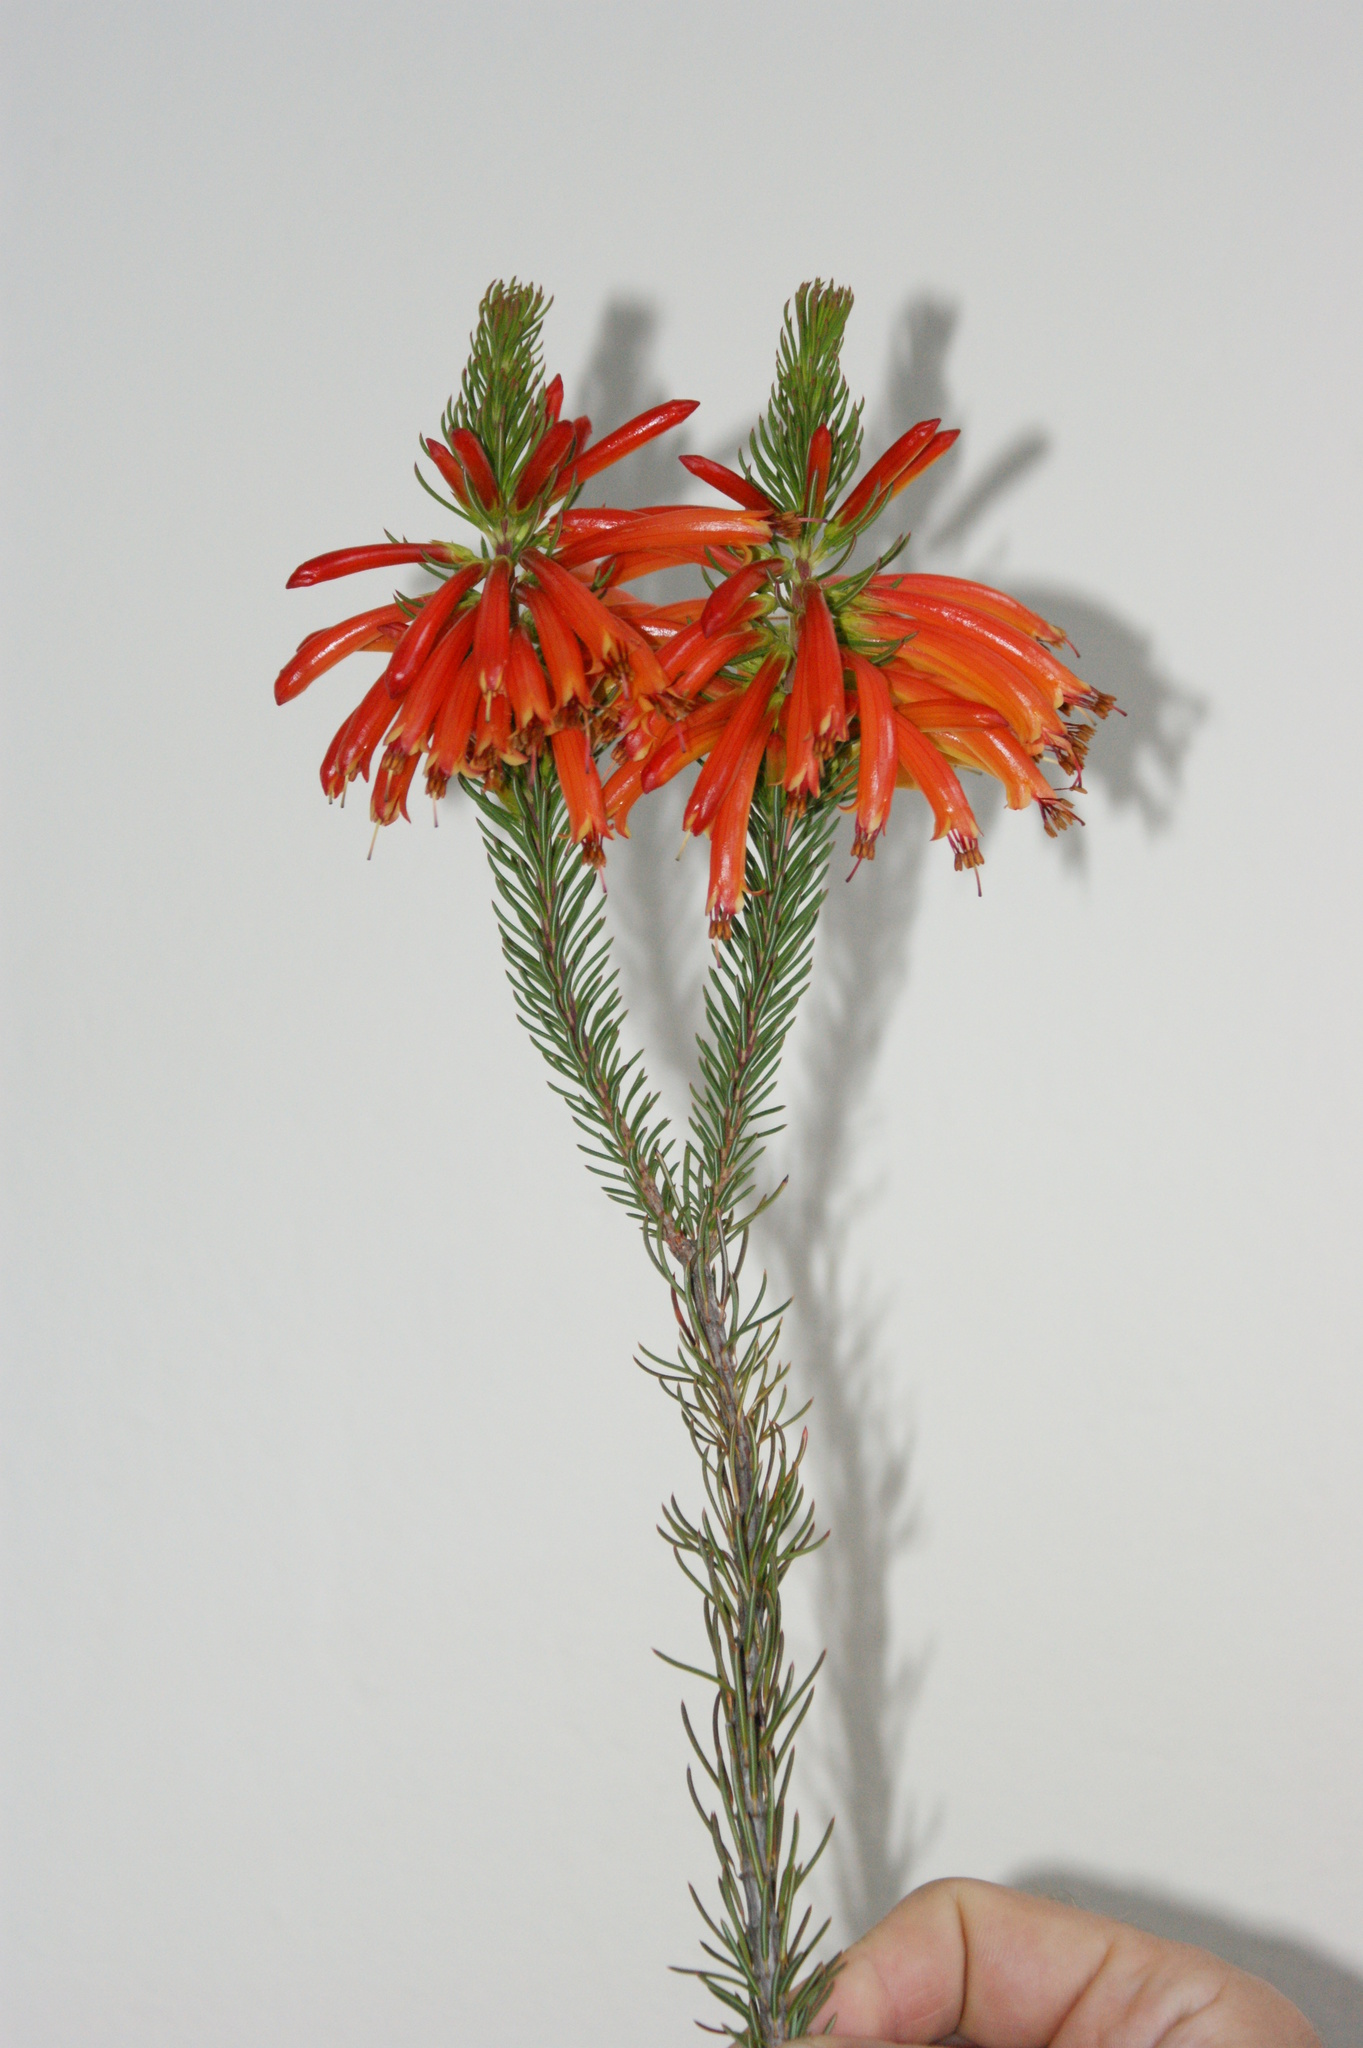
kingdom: Plantae
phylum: Tracheophyta
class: Magnoliopsida
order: Ericales
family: Ericaceae
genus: Erica
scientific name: Erica grandiflora
